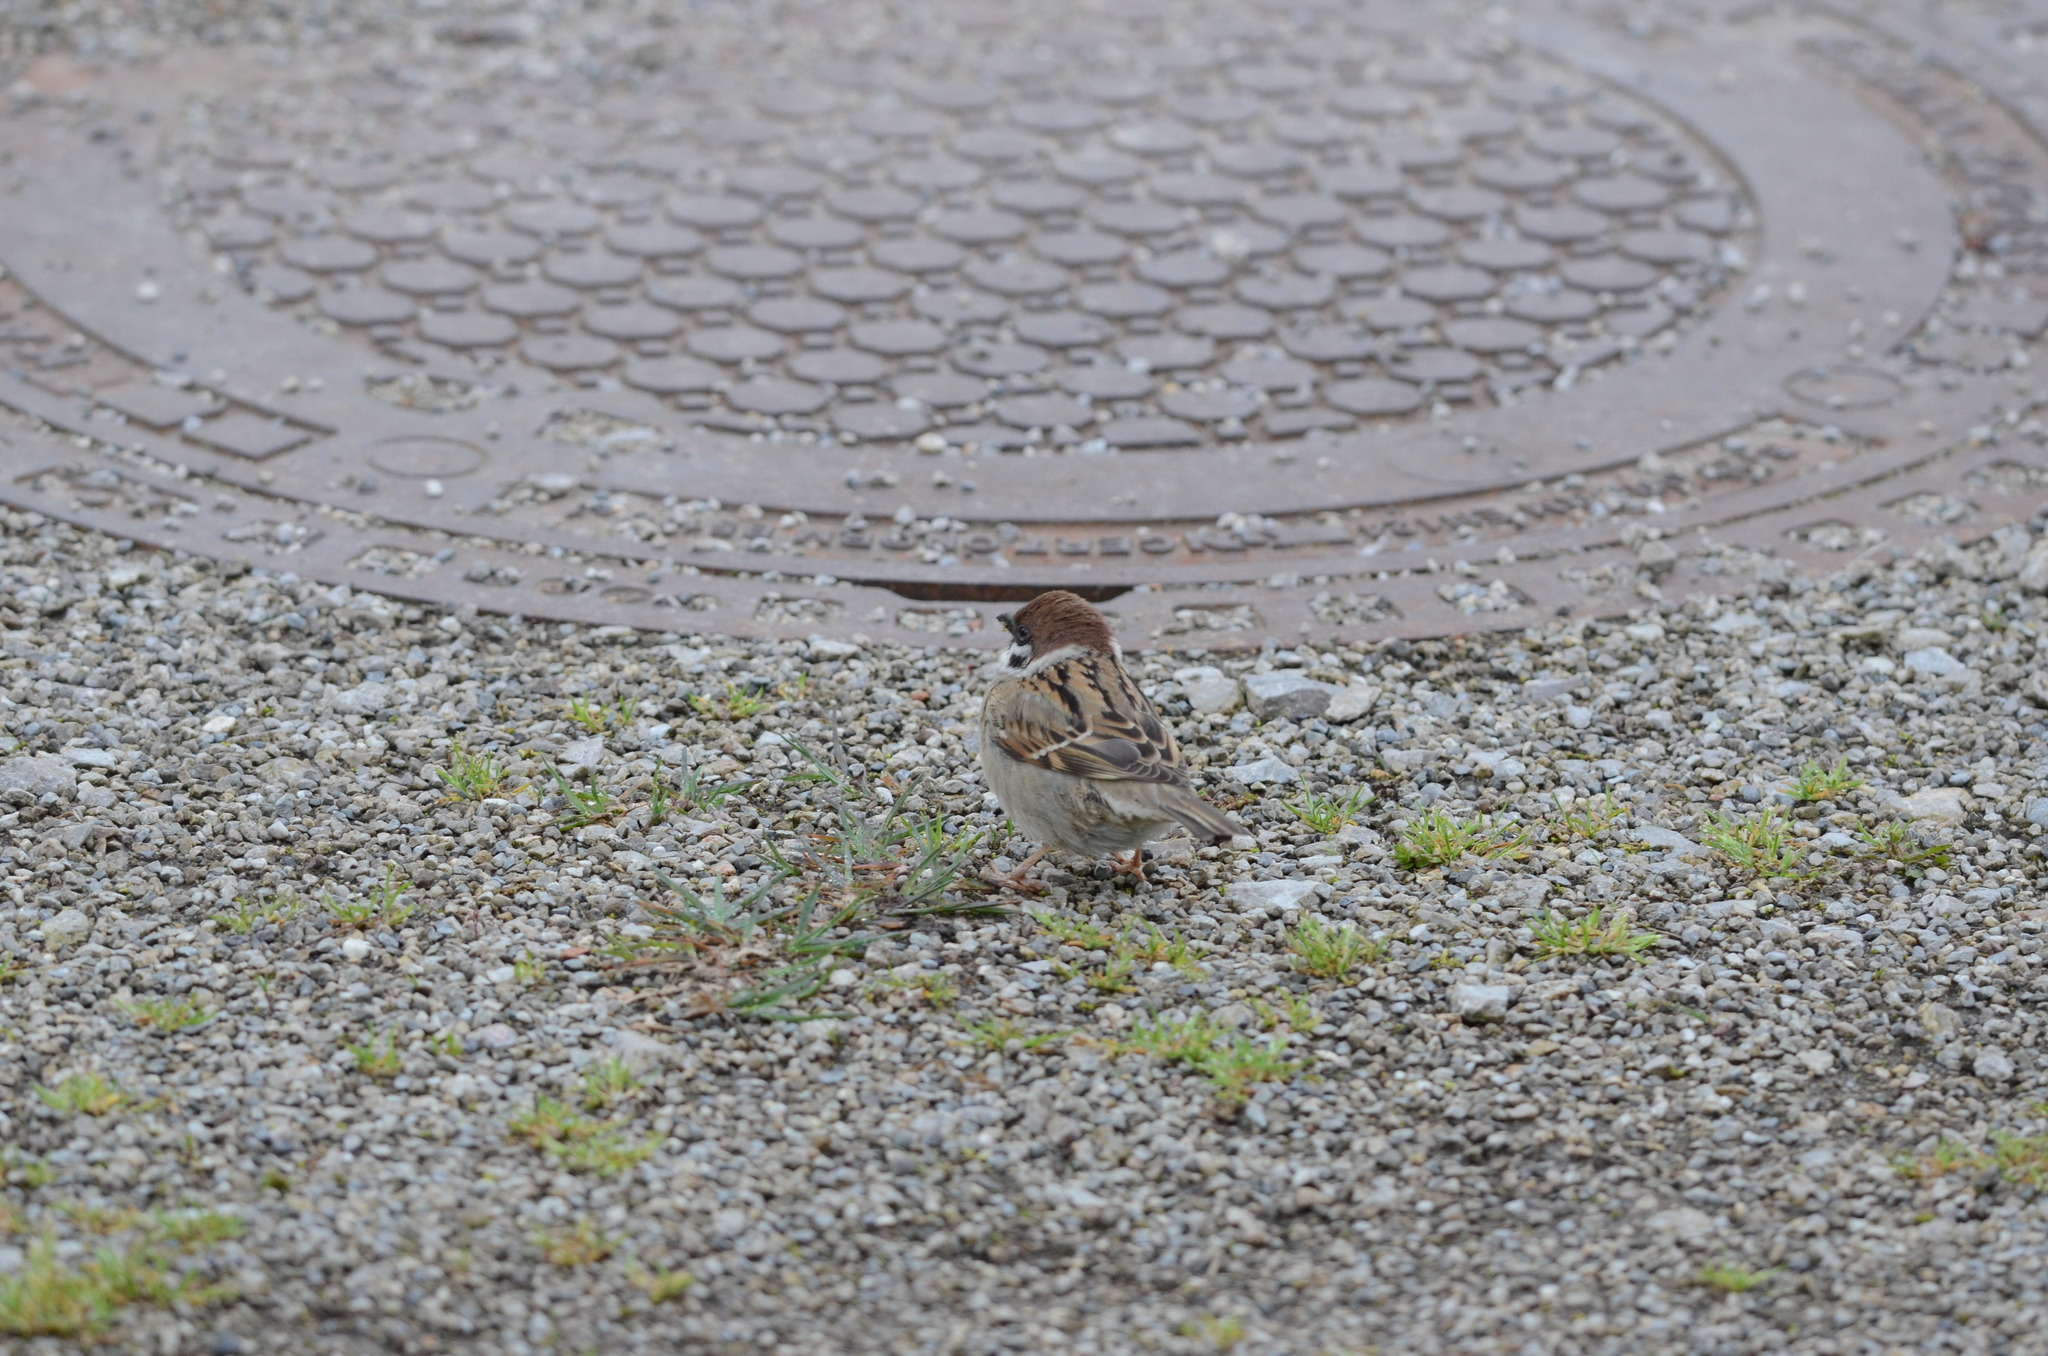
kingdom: Animalia
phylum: Chordata
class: Aves
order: Passeriformes
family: Passeridae
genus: Passer
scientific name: Passer montanus
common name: Eurasian tree sparrow
